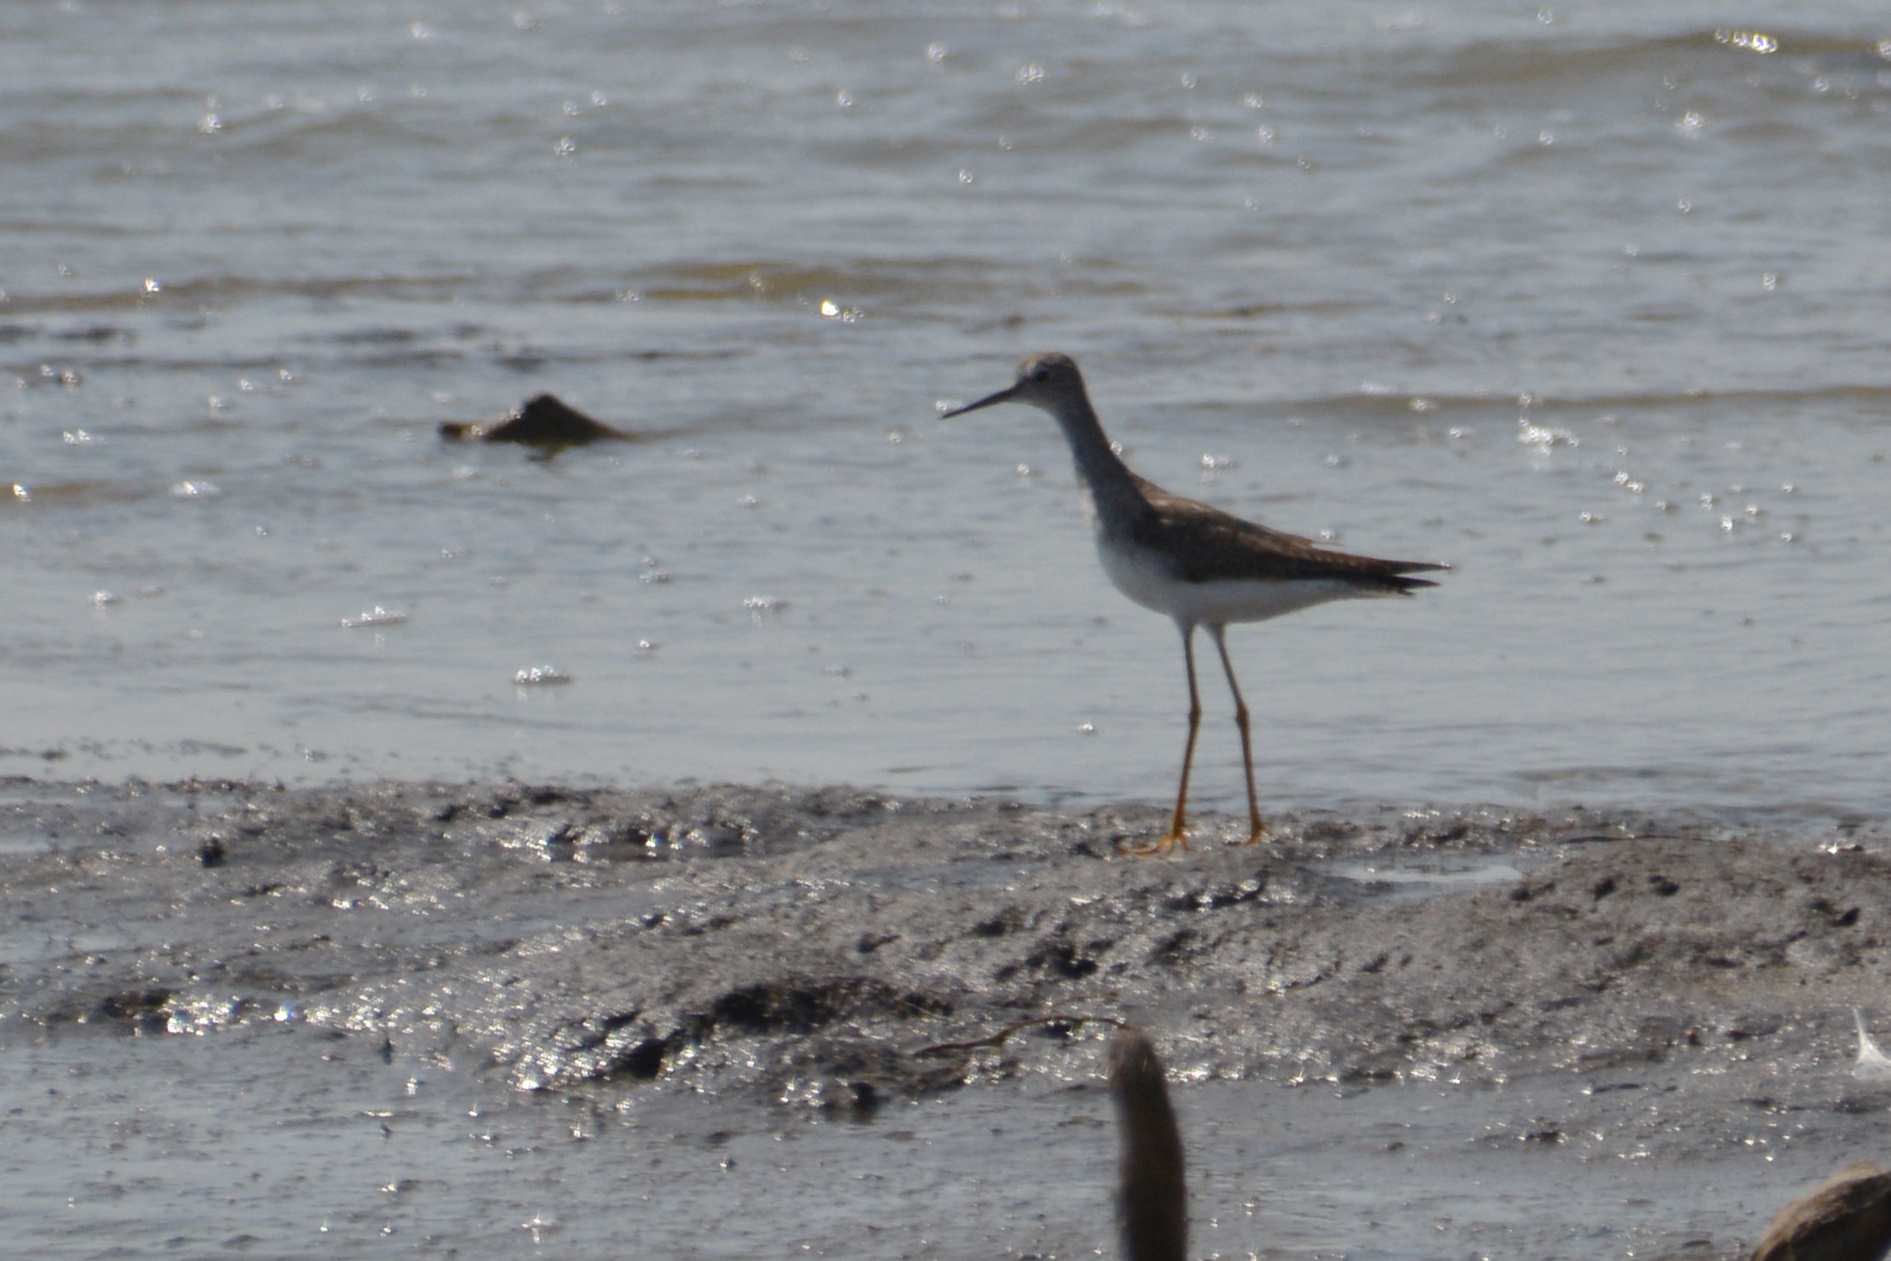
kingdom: Animalia
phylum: Chordata
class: Aves
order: Charadriiformes
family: Scolopacidae
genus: Tringa
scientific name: Tringa melanoleuca
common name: Greater yellowlegs
